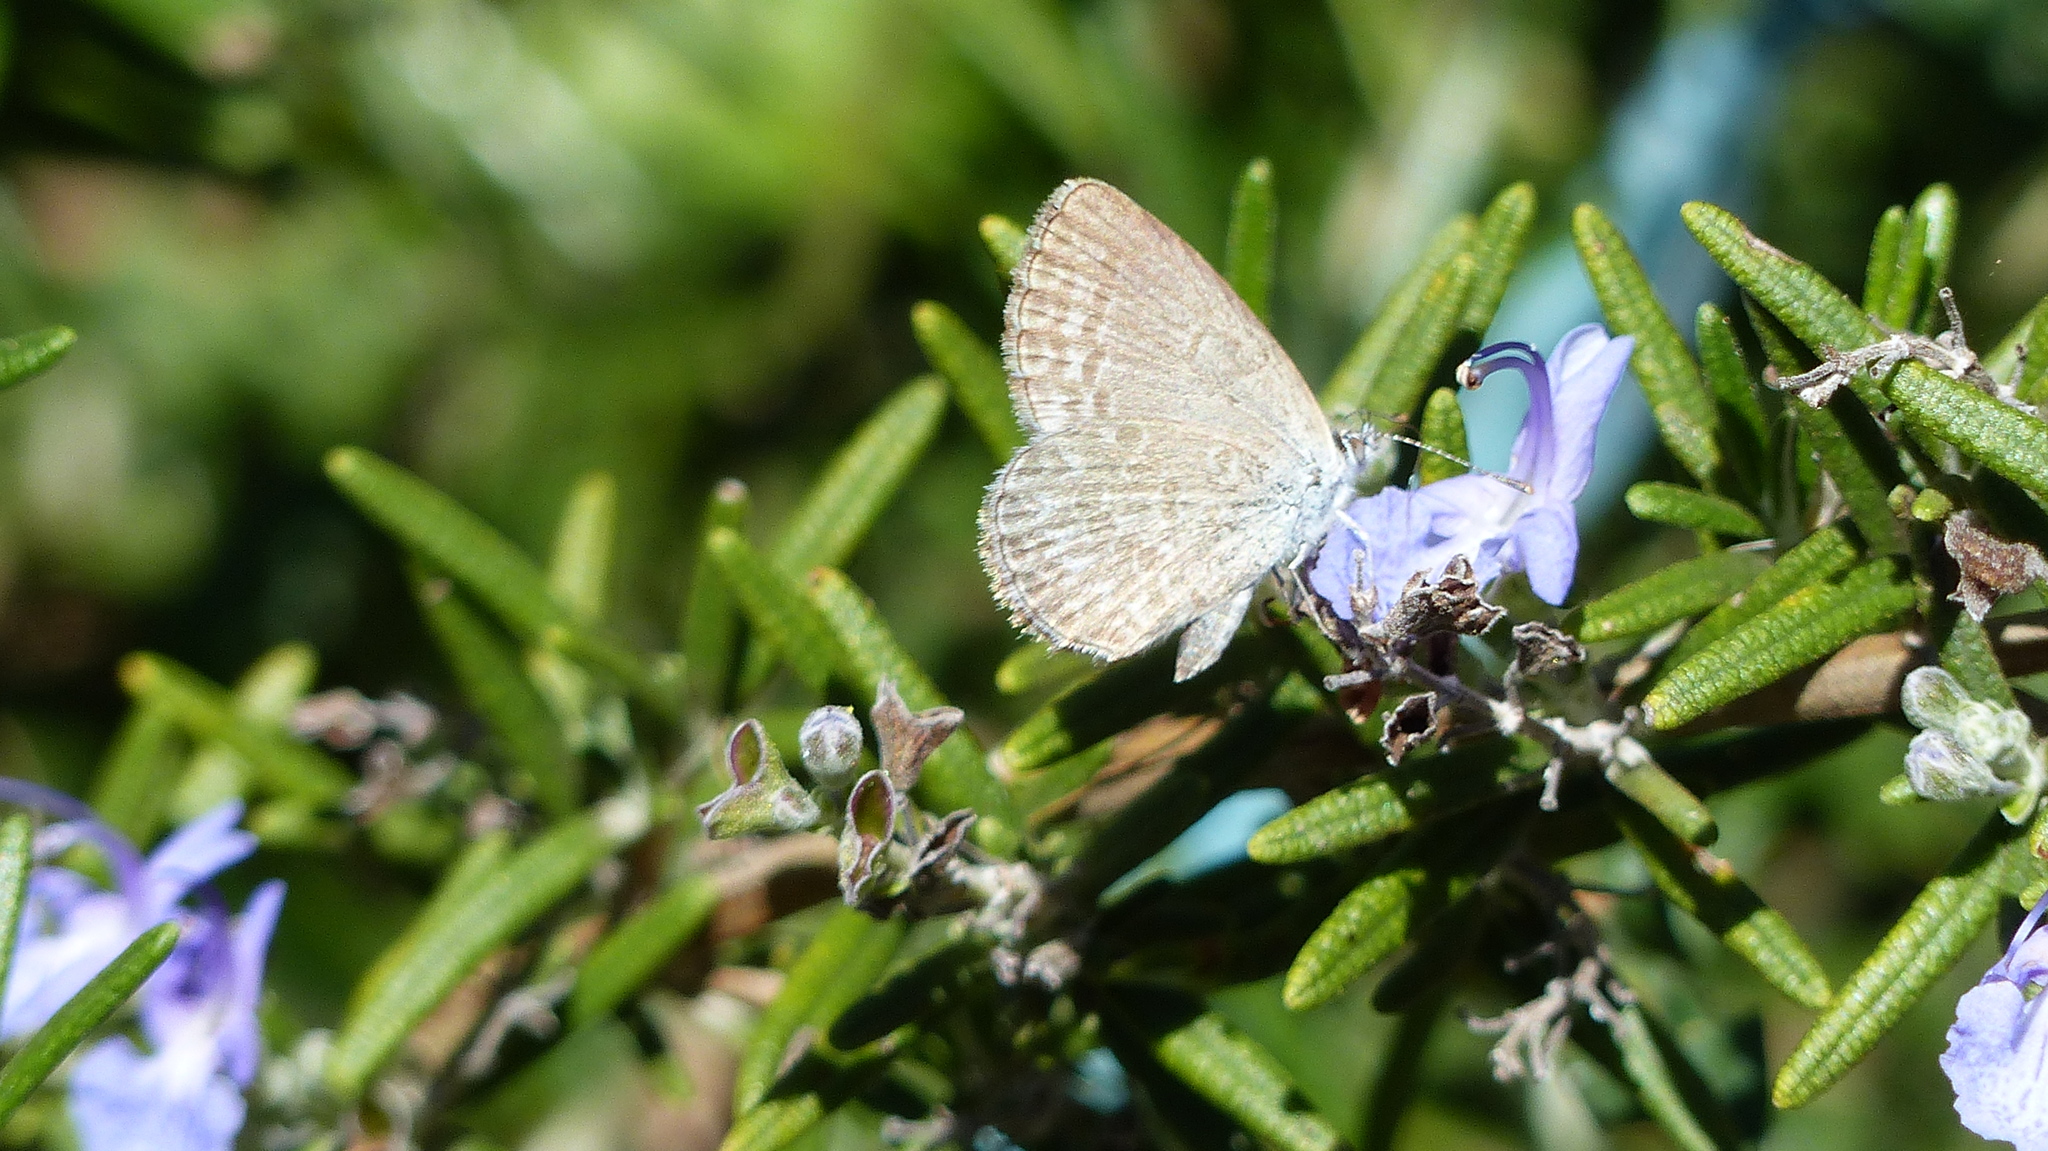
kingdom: Animalia
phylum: Arthropoda
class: Insecta
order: Lepidoptera
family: Lycaenidae
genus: Zizina
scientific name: Zizina labradus
